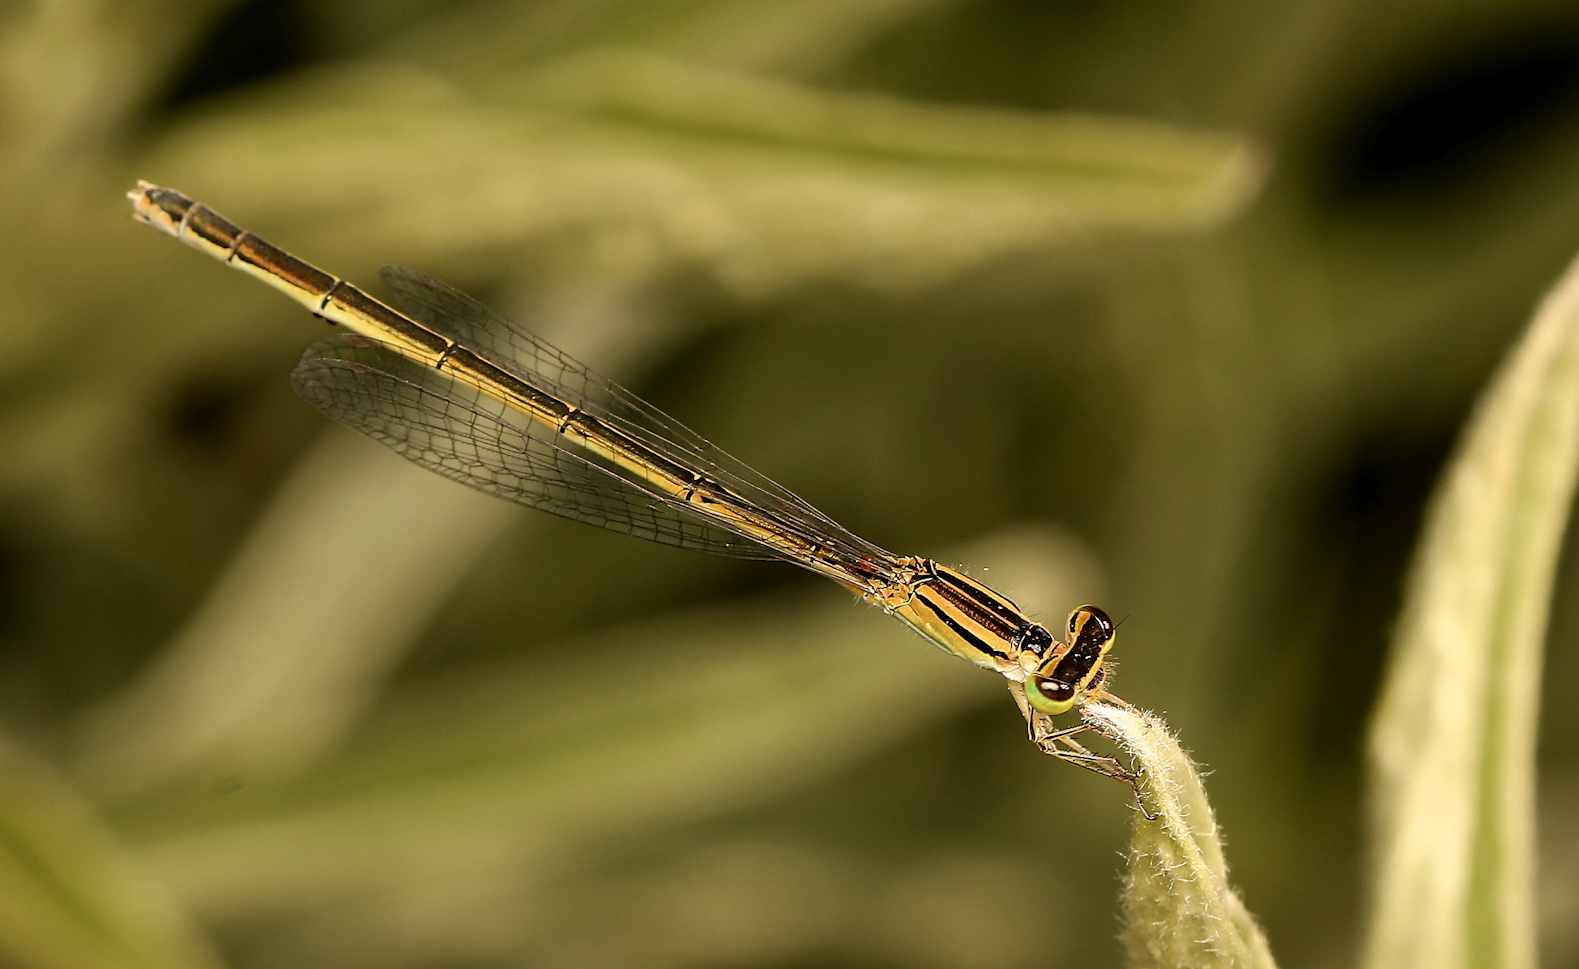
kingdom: Animalia
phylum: Arthropoda
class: Insecta
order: Odonata
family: Coenagrionidae
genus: Africallagma
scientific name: Africallagma glaucum
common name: Swamp bluet
